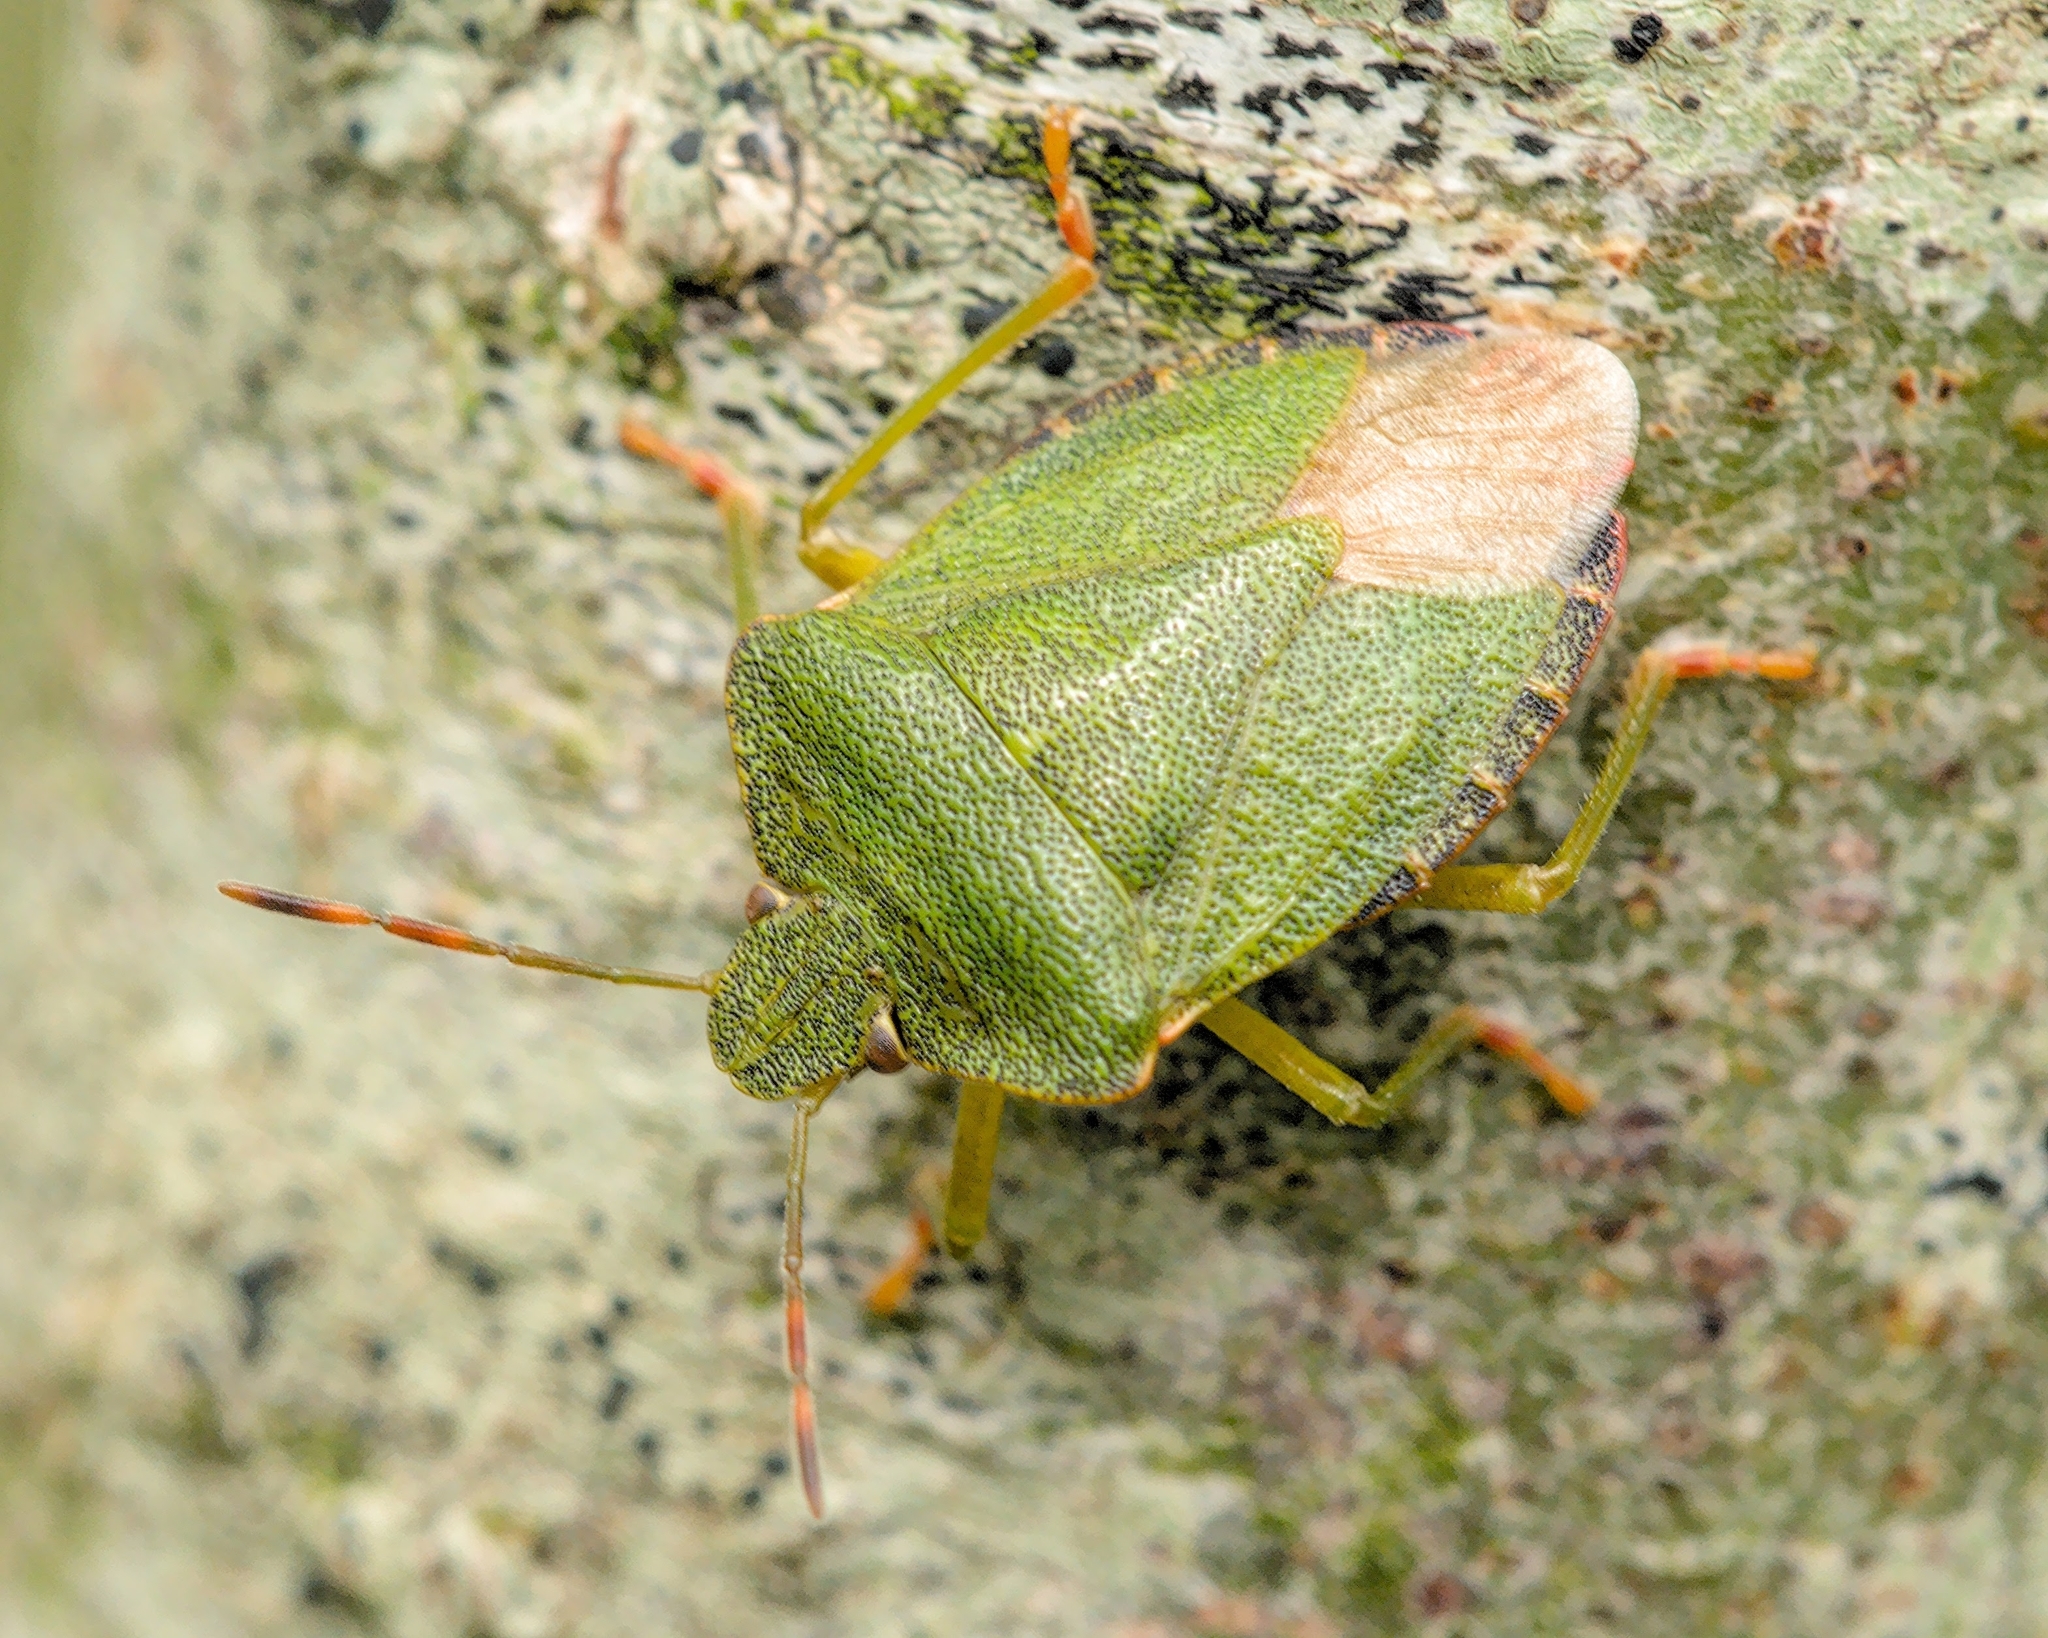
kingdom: Animalia
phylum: Arthropoda
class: Insecta
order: Hemiptera
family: Pentatomidae
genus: Palomena
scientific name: Palomena prasina
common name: Green shieldbug
